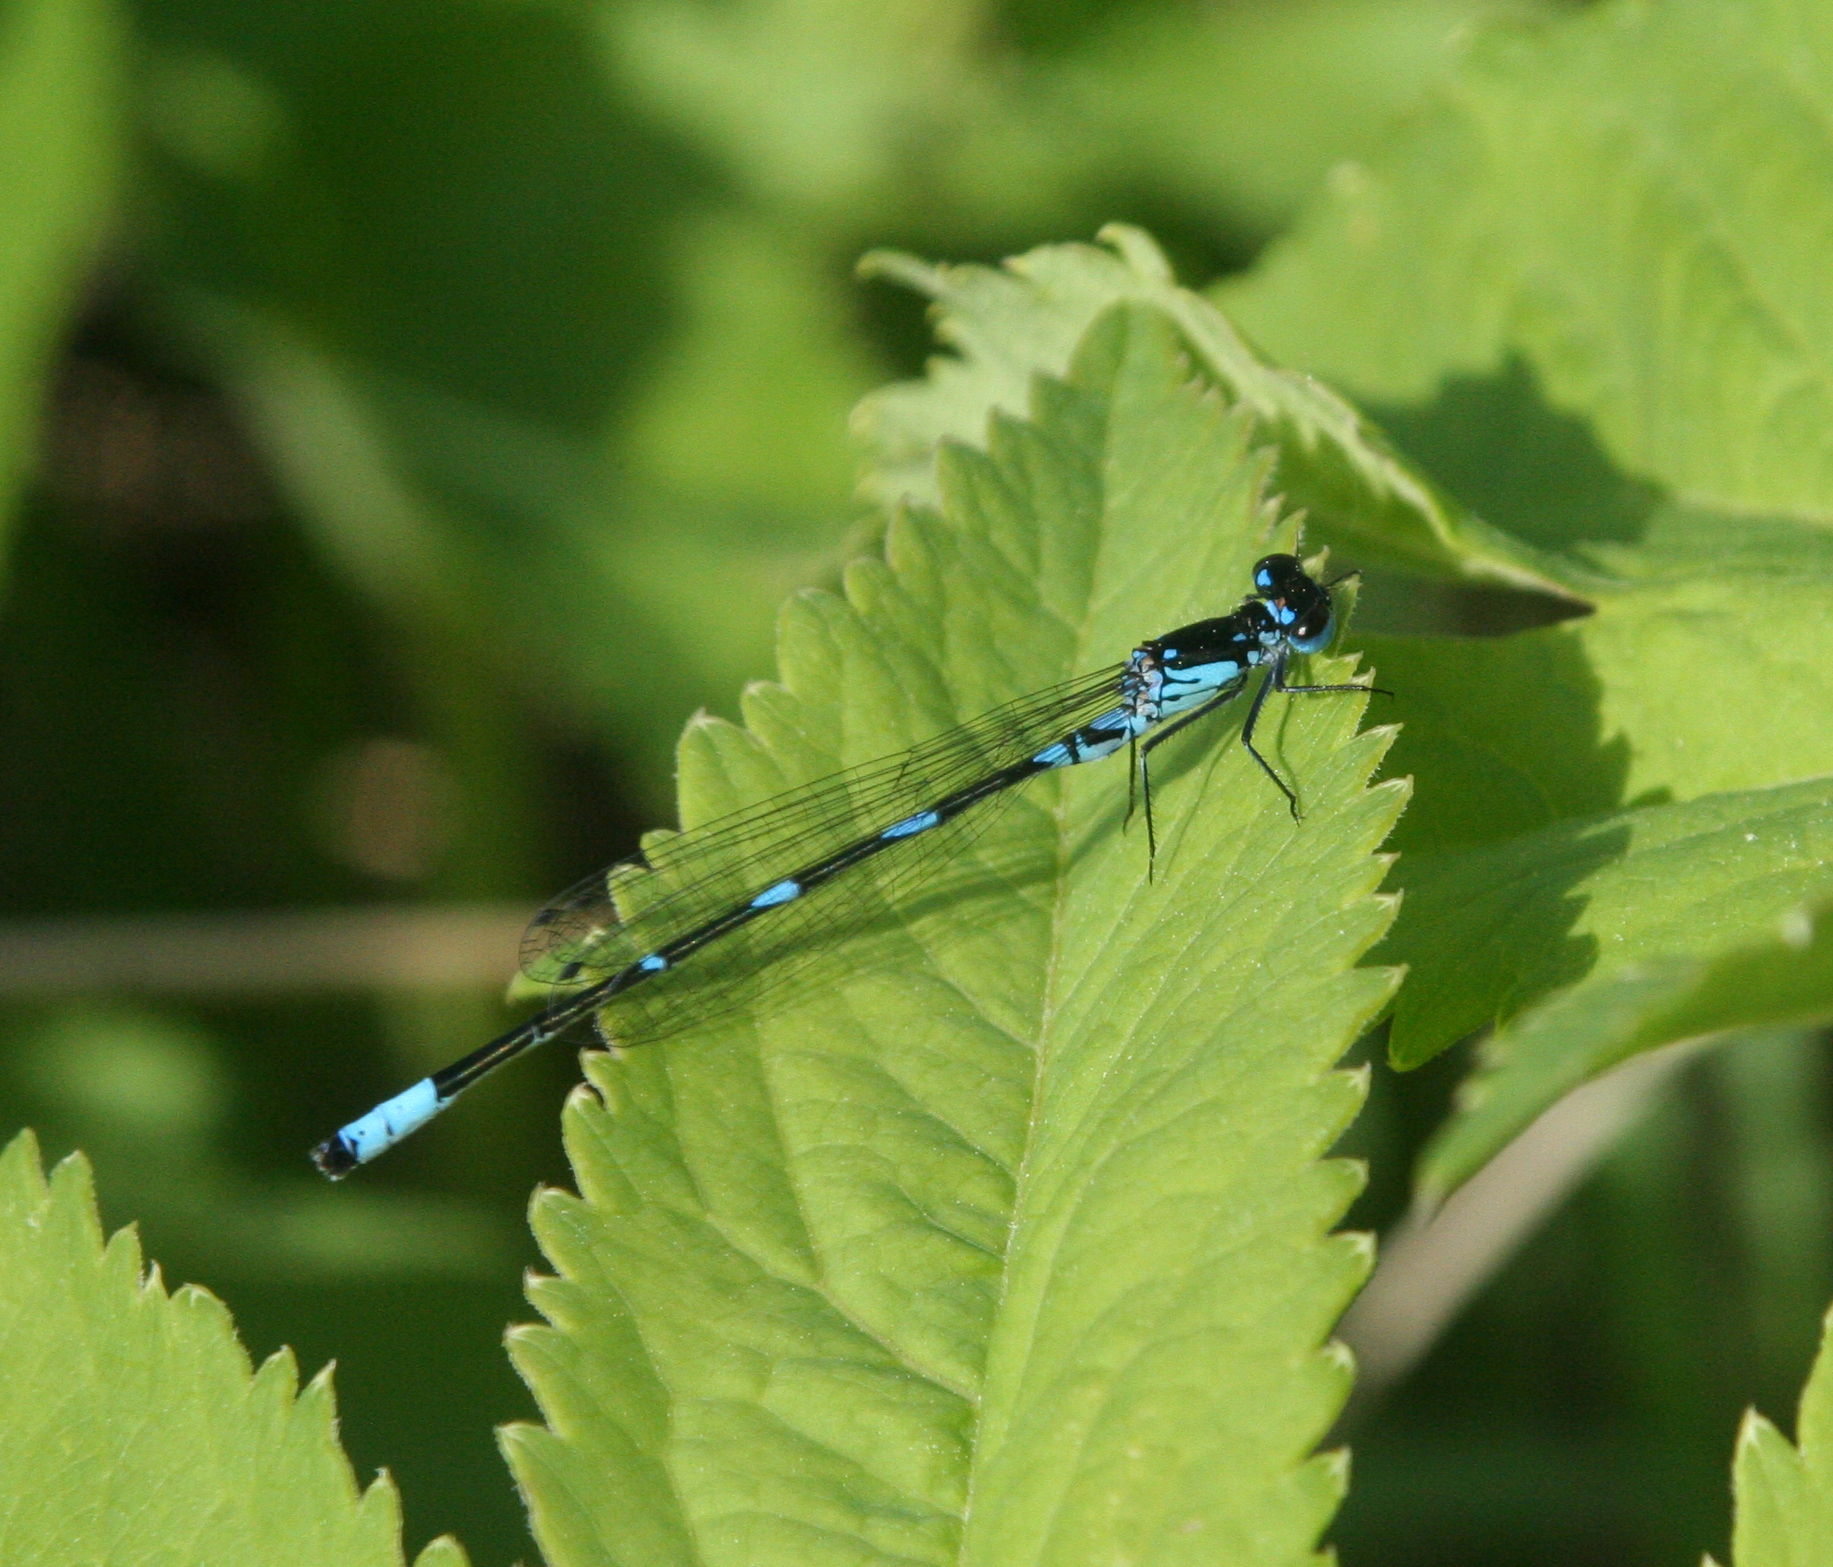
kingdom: Animalia
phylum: Arthropoda
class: Insecta
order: Odonata
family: Coenagrionidae
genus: Coenagrion
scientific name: Coenagrion pulchellum
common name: Variable bluet
